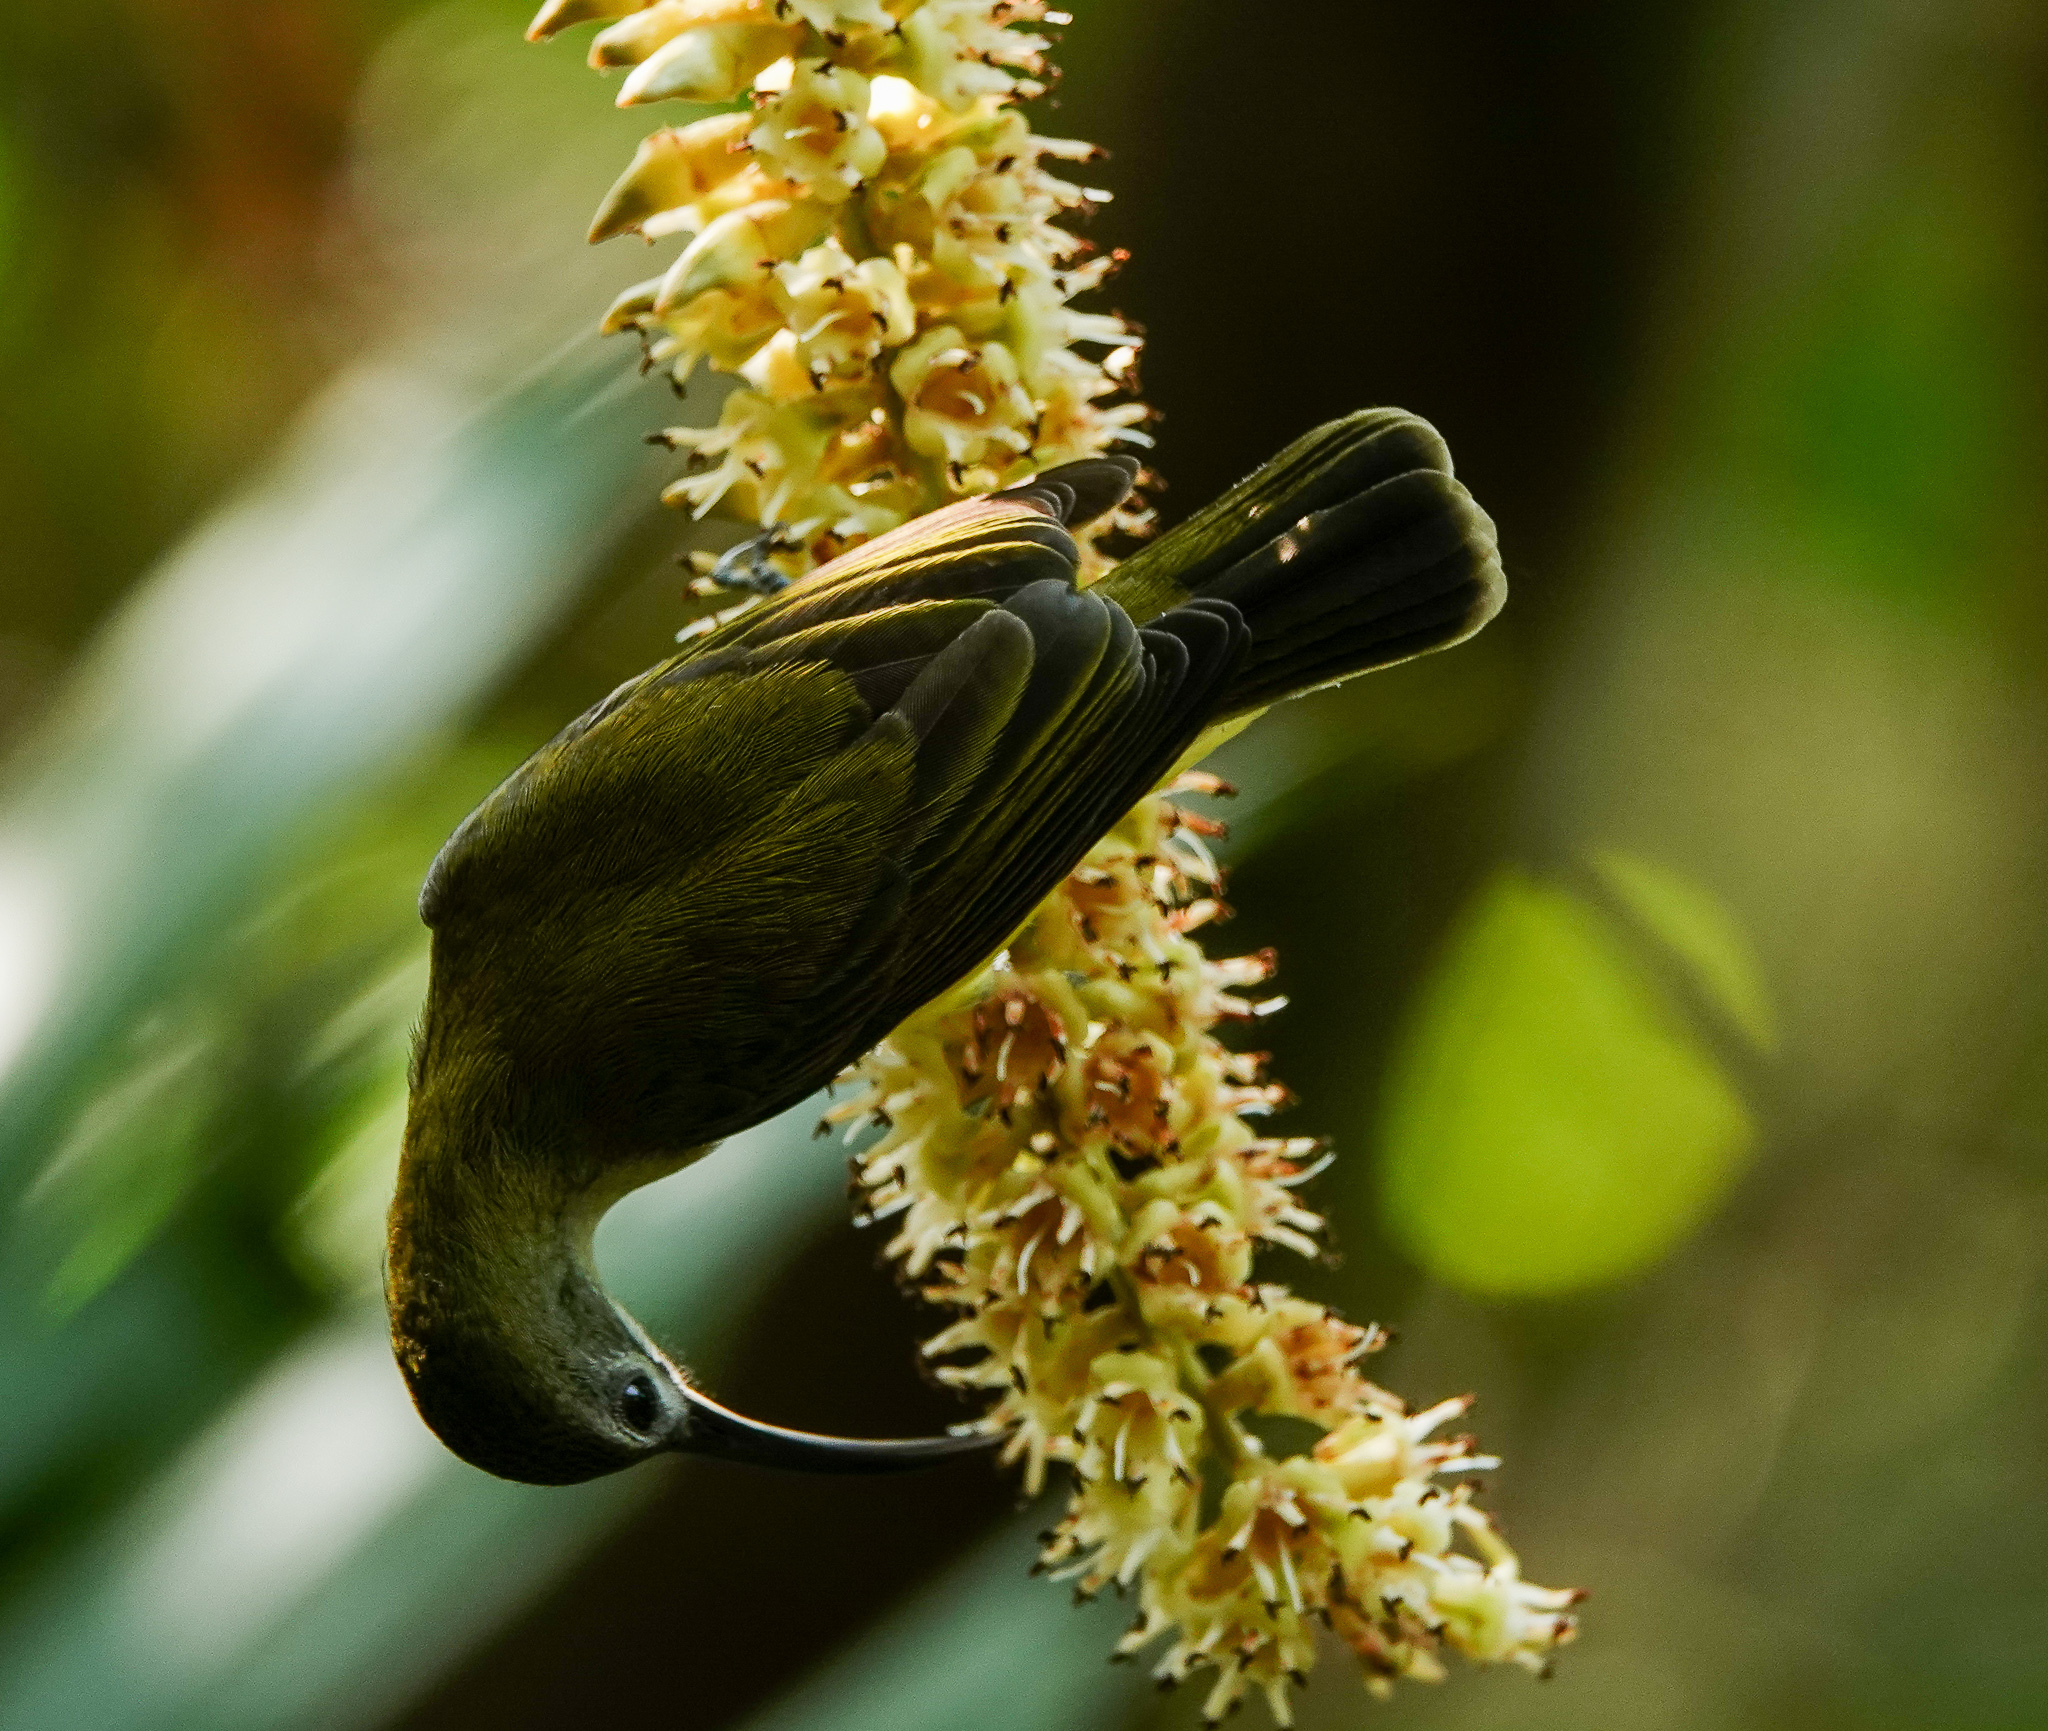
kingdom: Animalia
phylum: Chordata
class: Aves
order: Passeriformes
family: Nectariniidae
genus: Arachnothera
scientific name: Arachnothera longirostra
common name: Little spiderhunter
